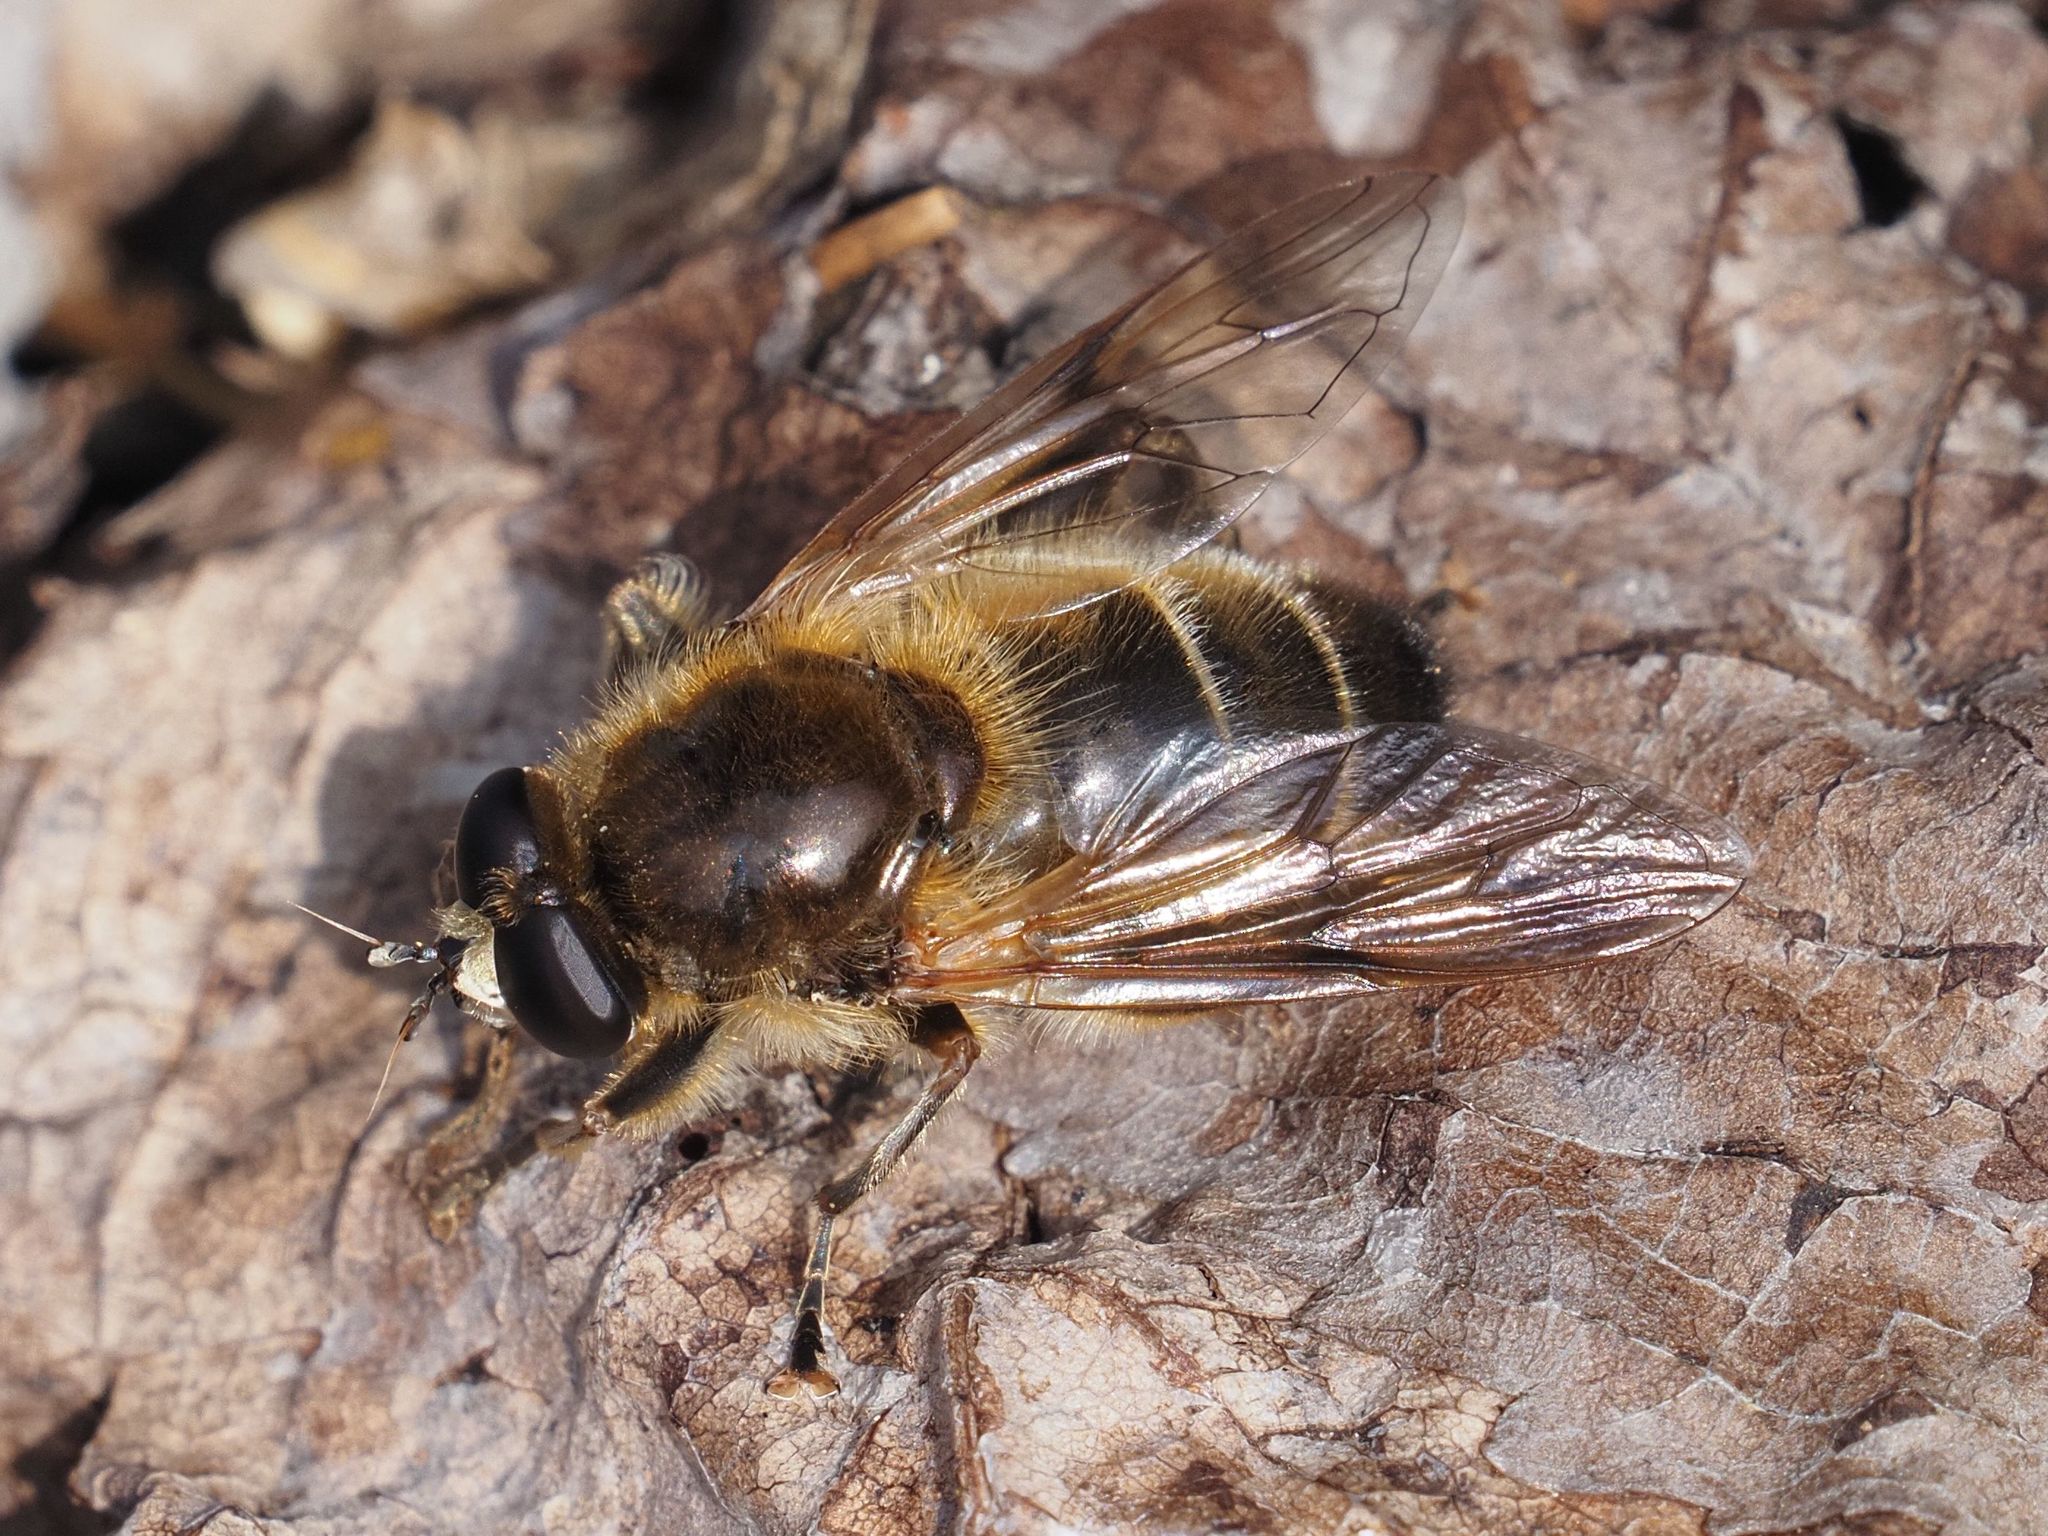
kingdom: Animalia
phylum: Arthropoda
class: Insecta
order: Diptera
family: Syrphidae
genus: Brachypalpus
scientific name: Brachypalpus valgus
